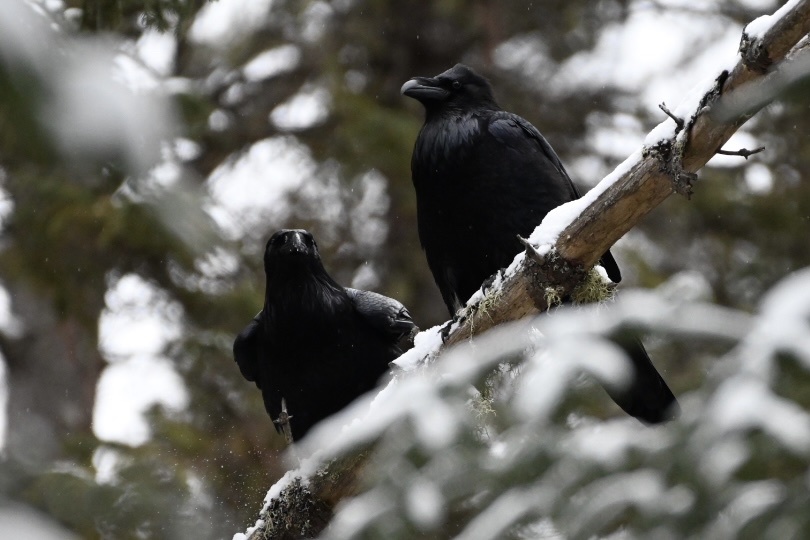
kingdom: Animalia
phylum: Chordata
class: Aves
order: Passeriformes
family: Corvidae
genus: Corvus
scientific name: Corvus corax
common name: Common raven
